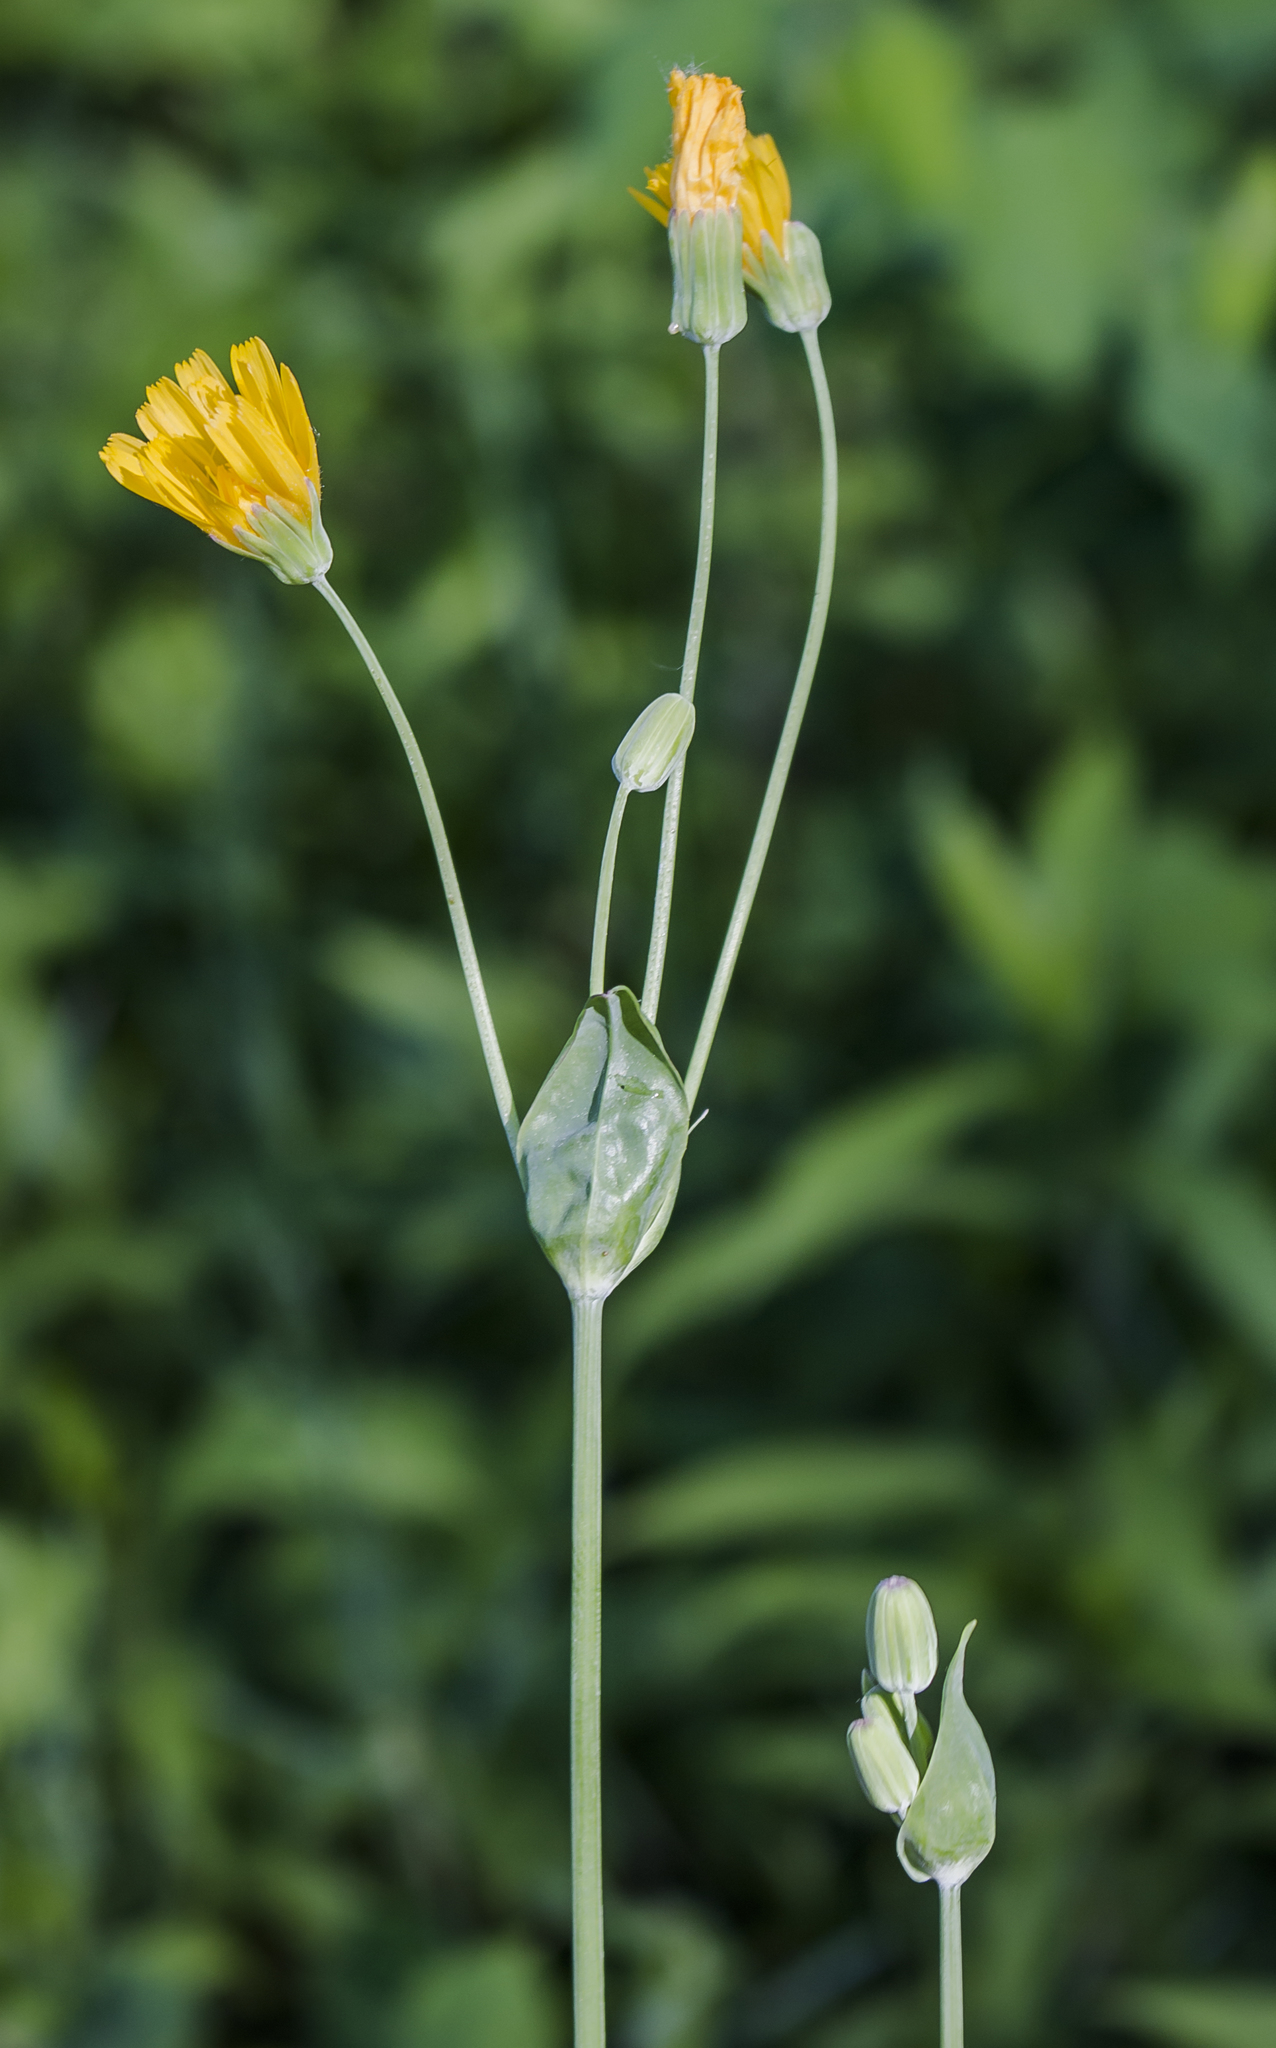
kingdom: Plantae
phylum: Tracheophyta
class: Magnoliopsida
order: Asterales
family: Asteraceae
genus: Krigia
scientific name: Krigia biflora
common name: Orange dwarf-dandelion
